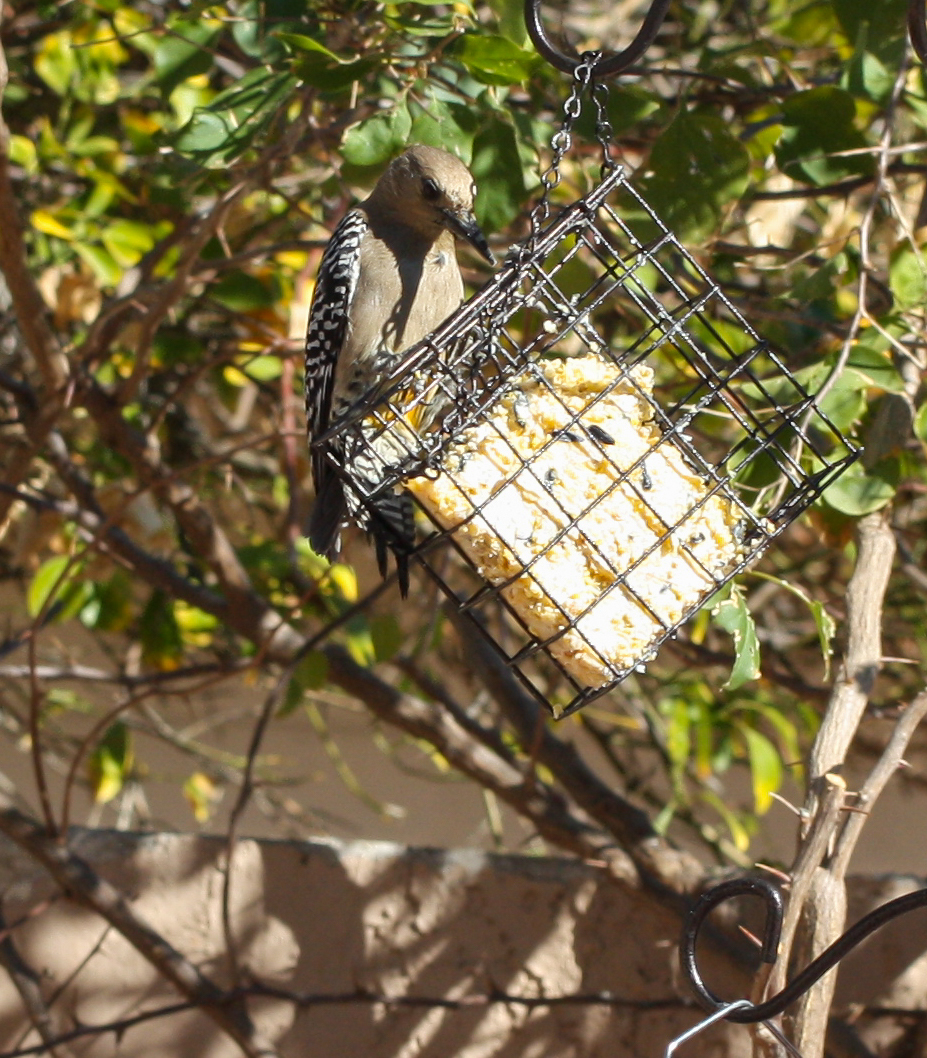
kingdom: Animalia
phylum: Chordata
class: Aves
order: Piciformes
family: Picidae
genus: Melanerpes
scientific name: Melanerpes uropygialis
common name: Gila woodpecker
